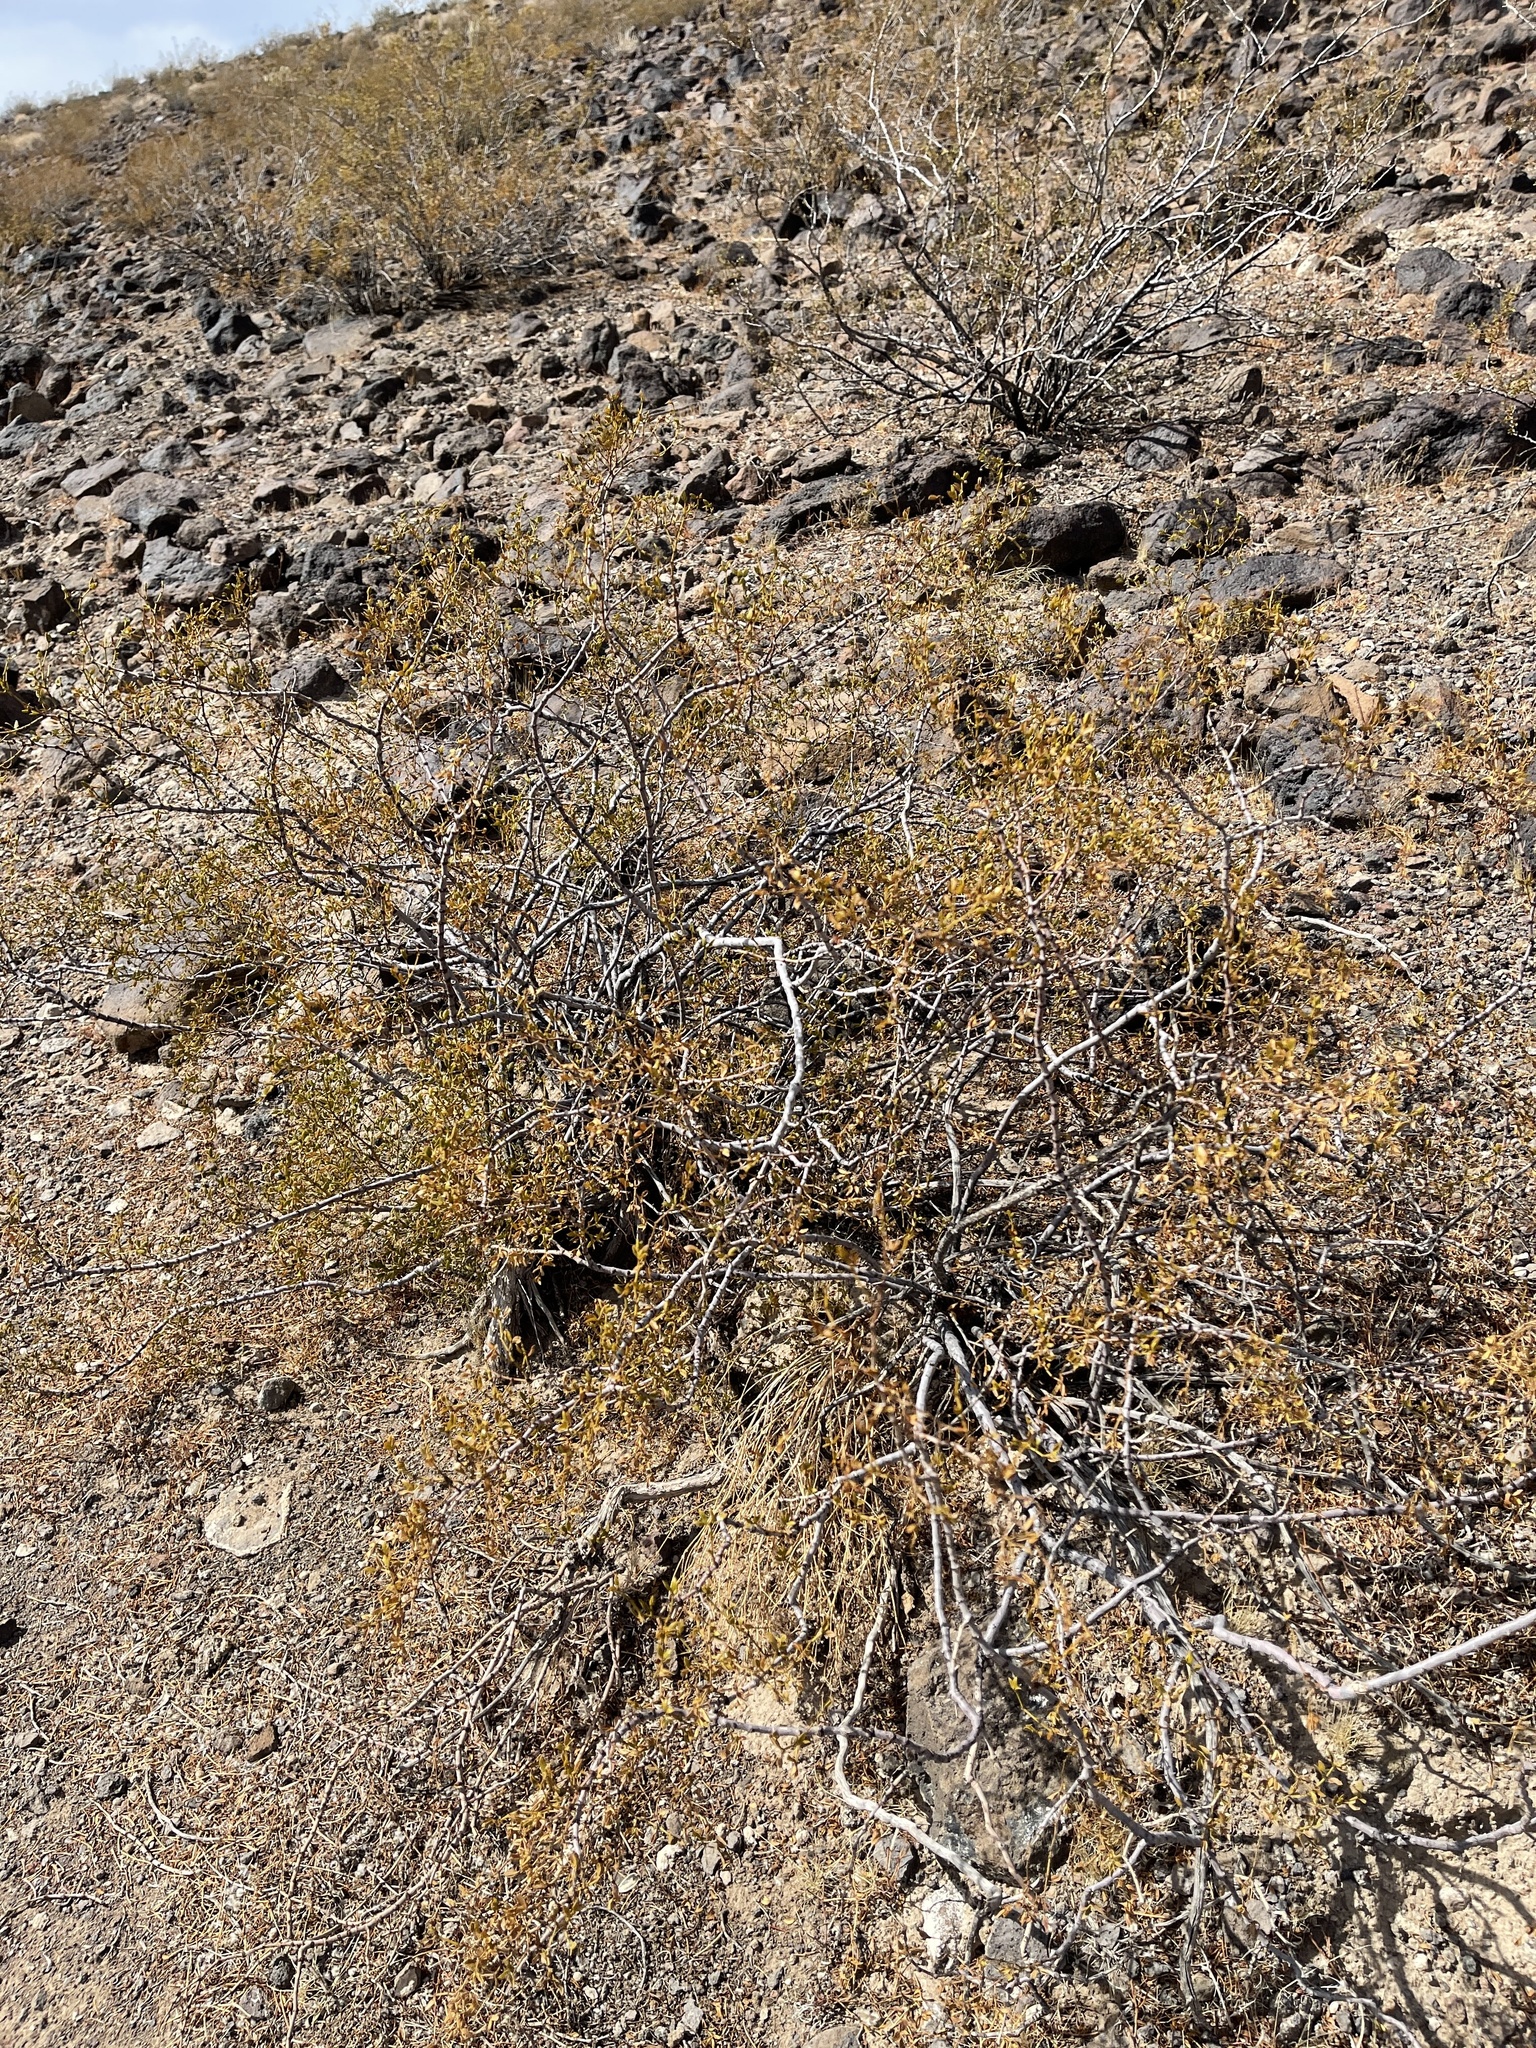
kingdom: Plantae
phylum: Tracheophyta
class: Magnoliopsida
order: Zygophyllales
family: Zygophyllaceae
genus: Larrea
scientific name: Larrea tridentata
